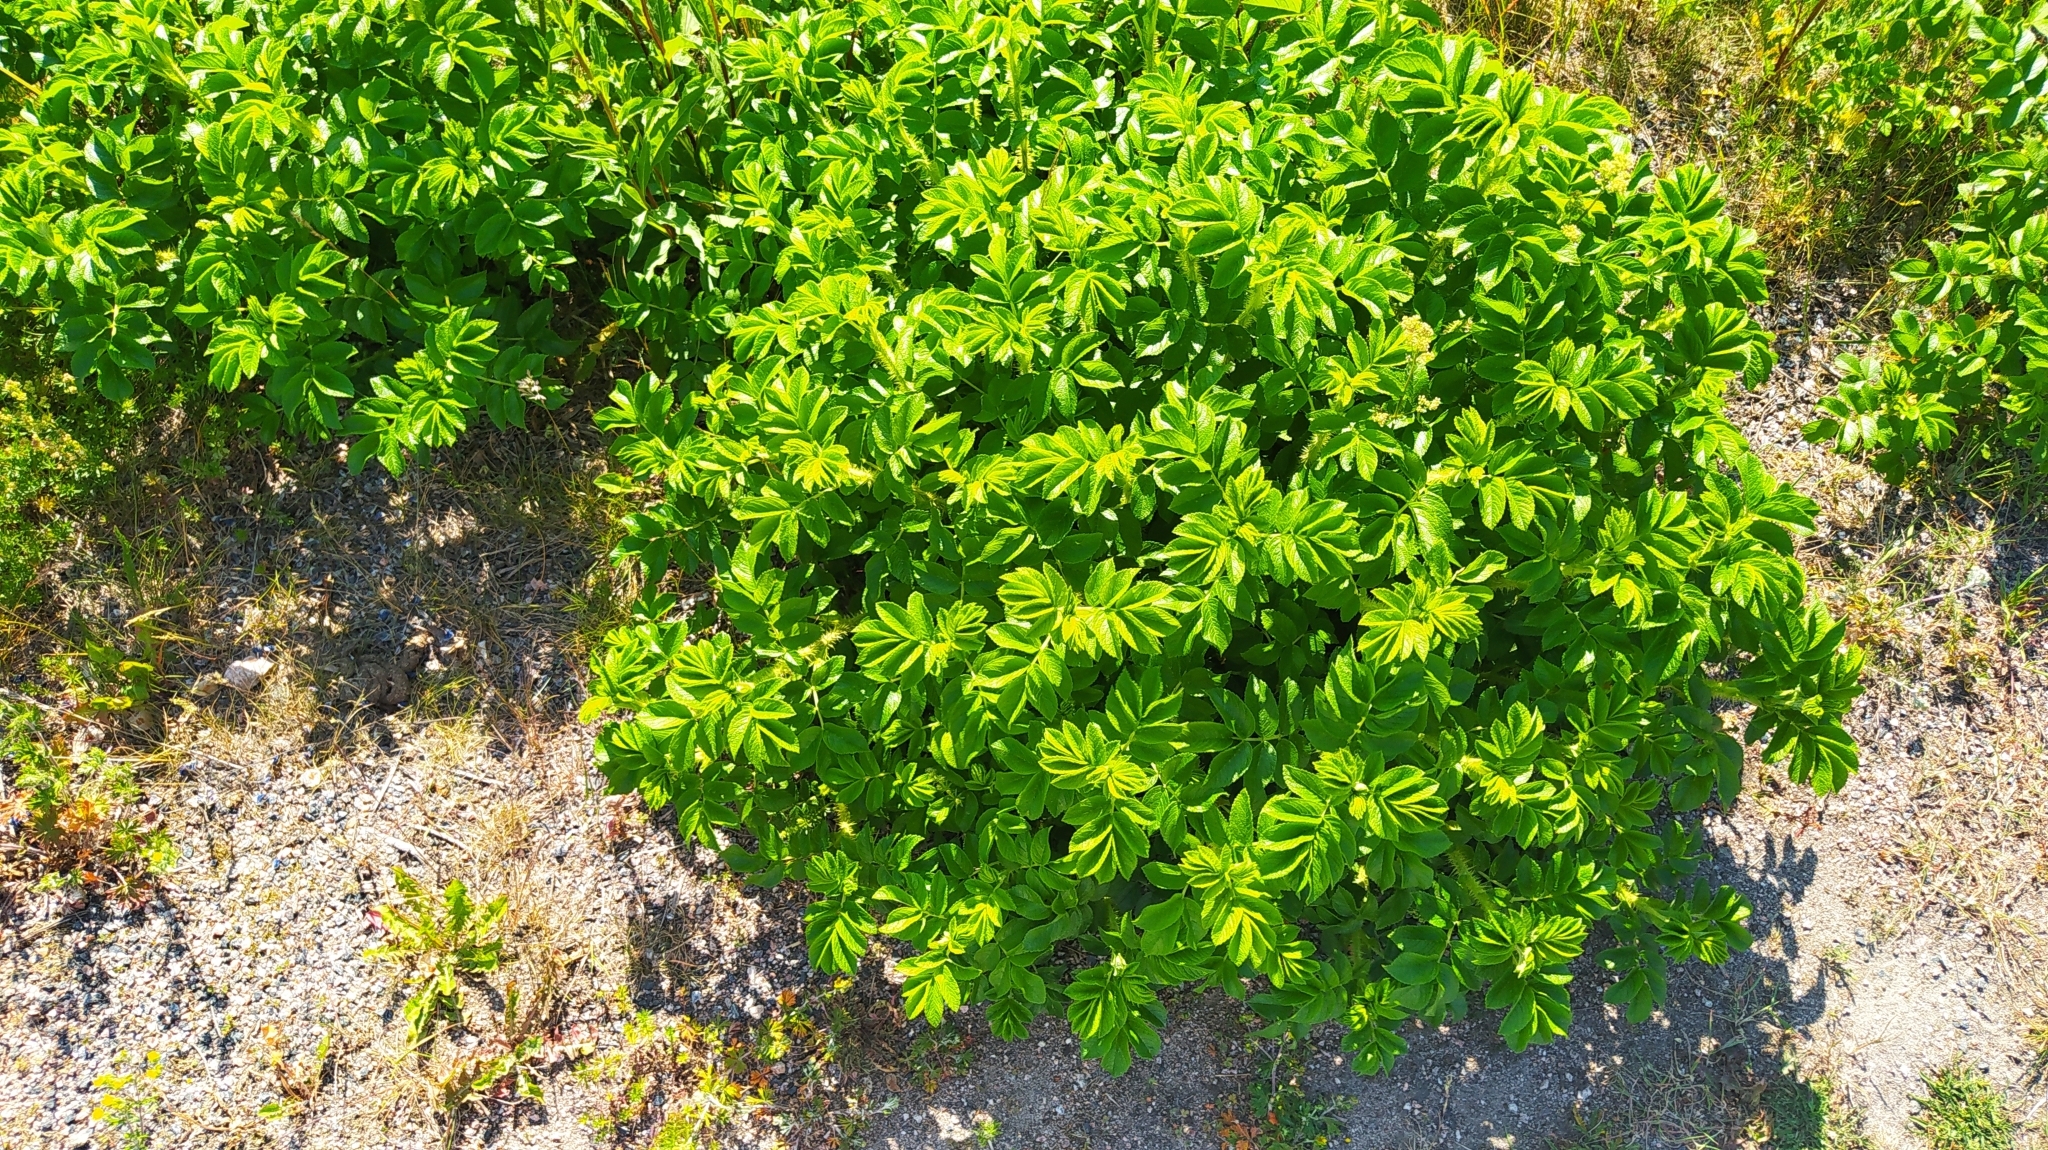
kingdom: Plantae
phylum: Tracheophyta
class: Magnoliopsida
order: Rosales
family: Rosaceae
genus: Rosa
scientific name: Rosa rugosa
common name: Japanese rose
